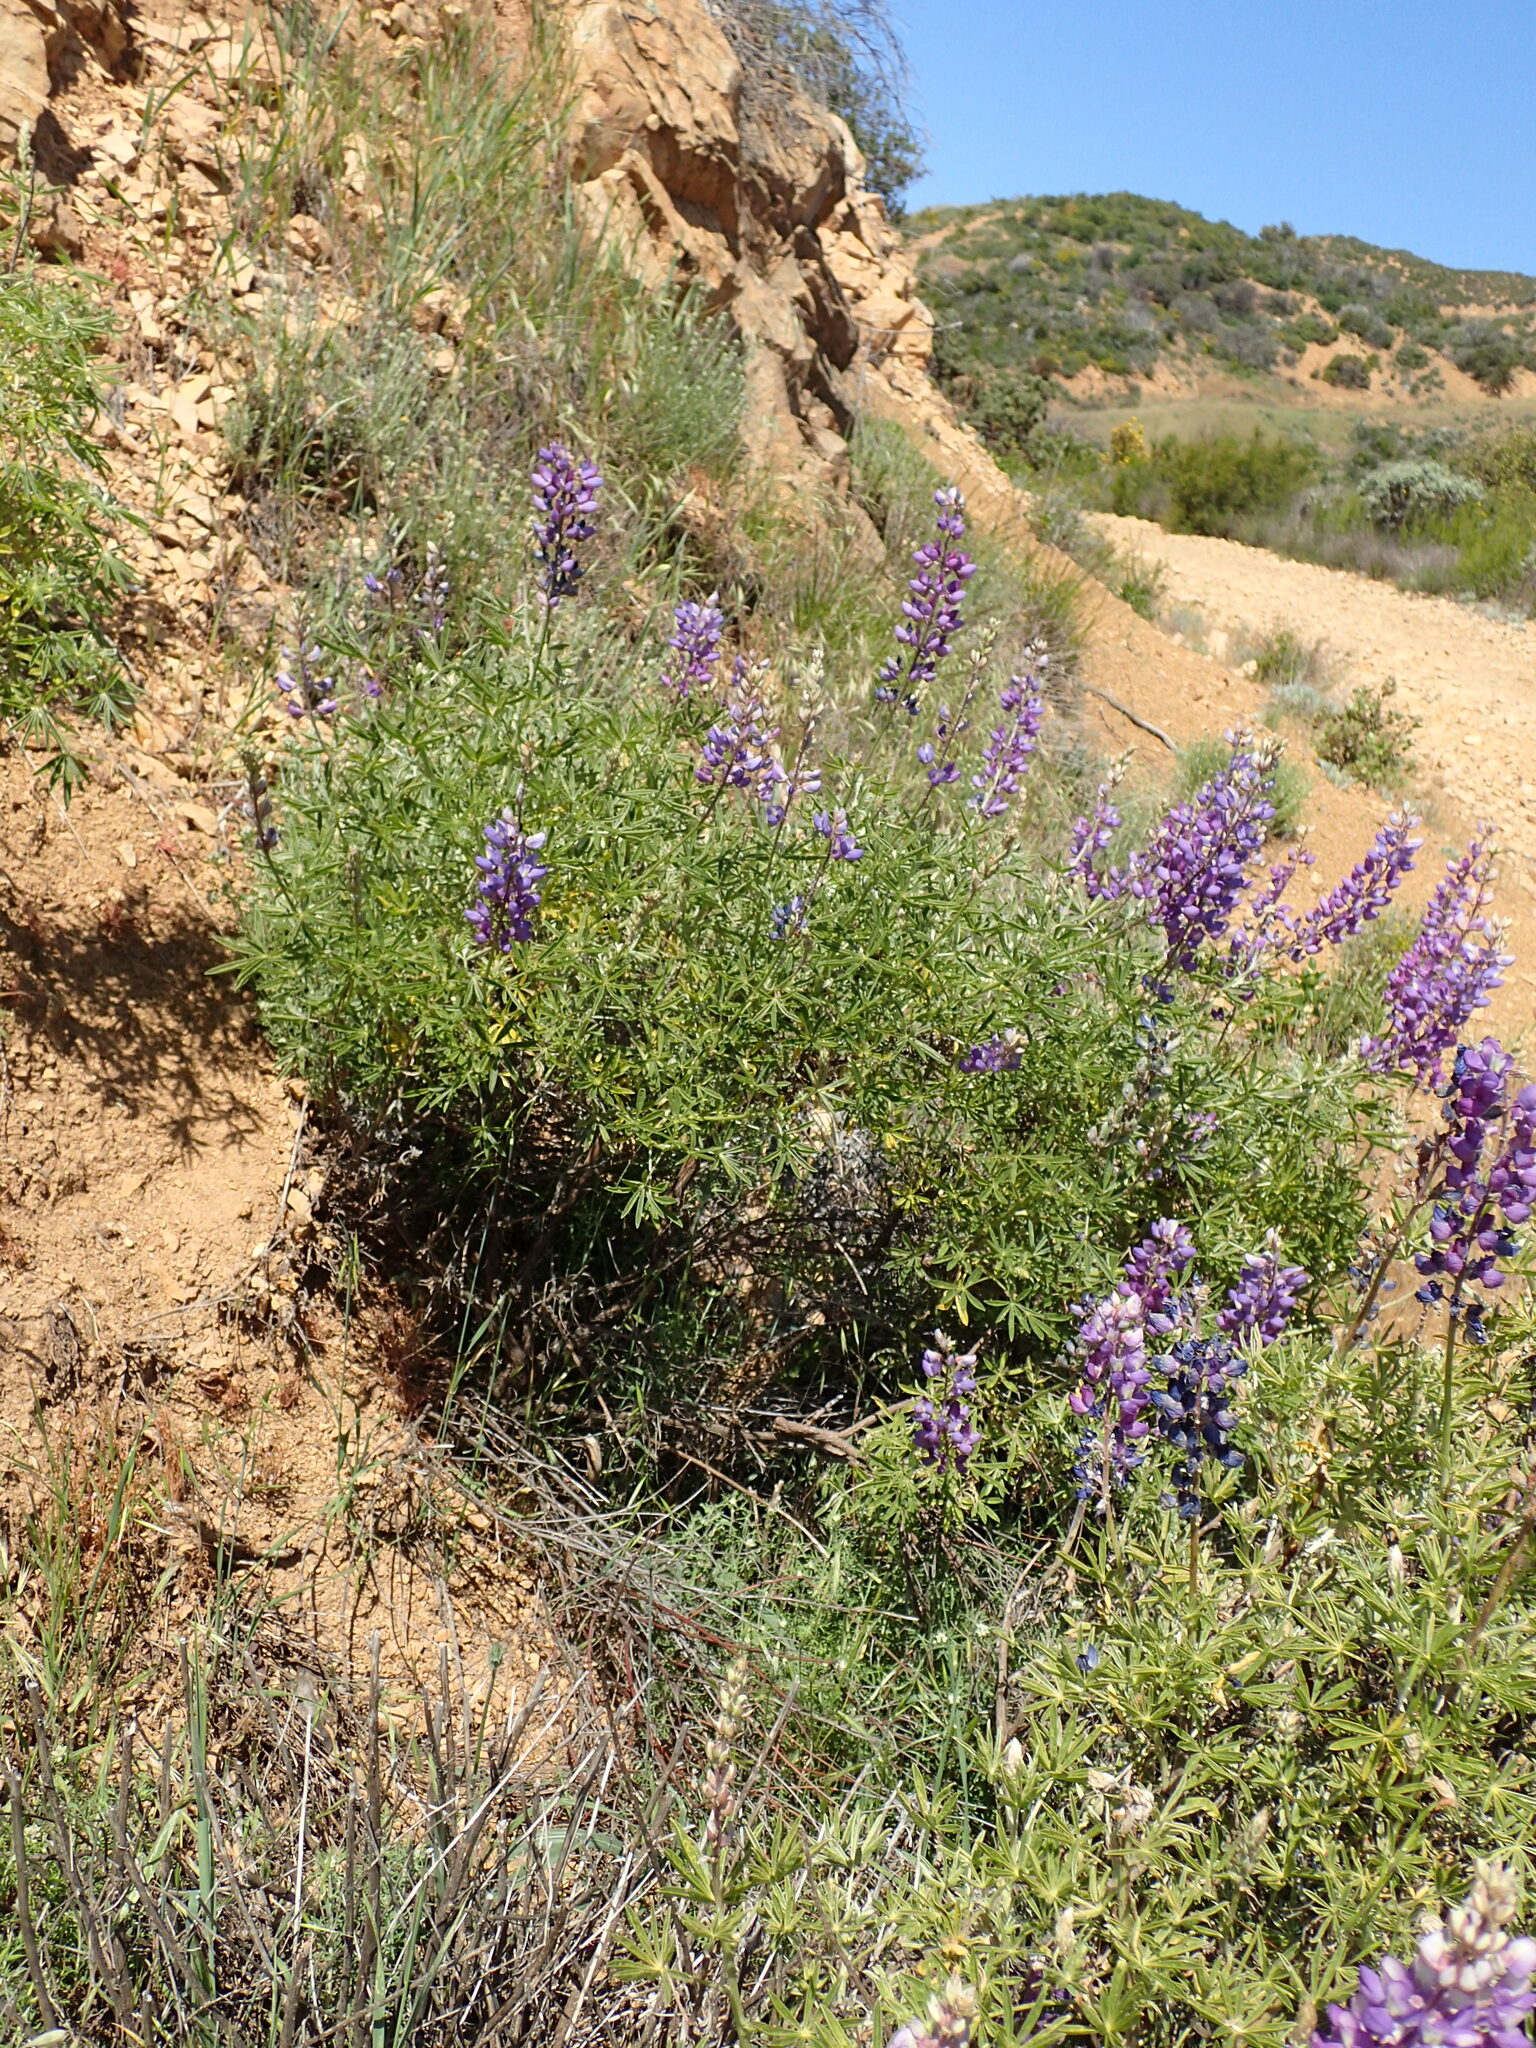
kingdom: Plantae
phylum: Tracheophyta
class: Magnoliopsida
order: Fabales
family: Fabaceae
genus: Lupinus
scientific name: Lupinus albifrons
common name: Foothill lupine
